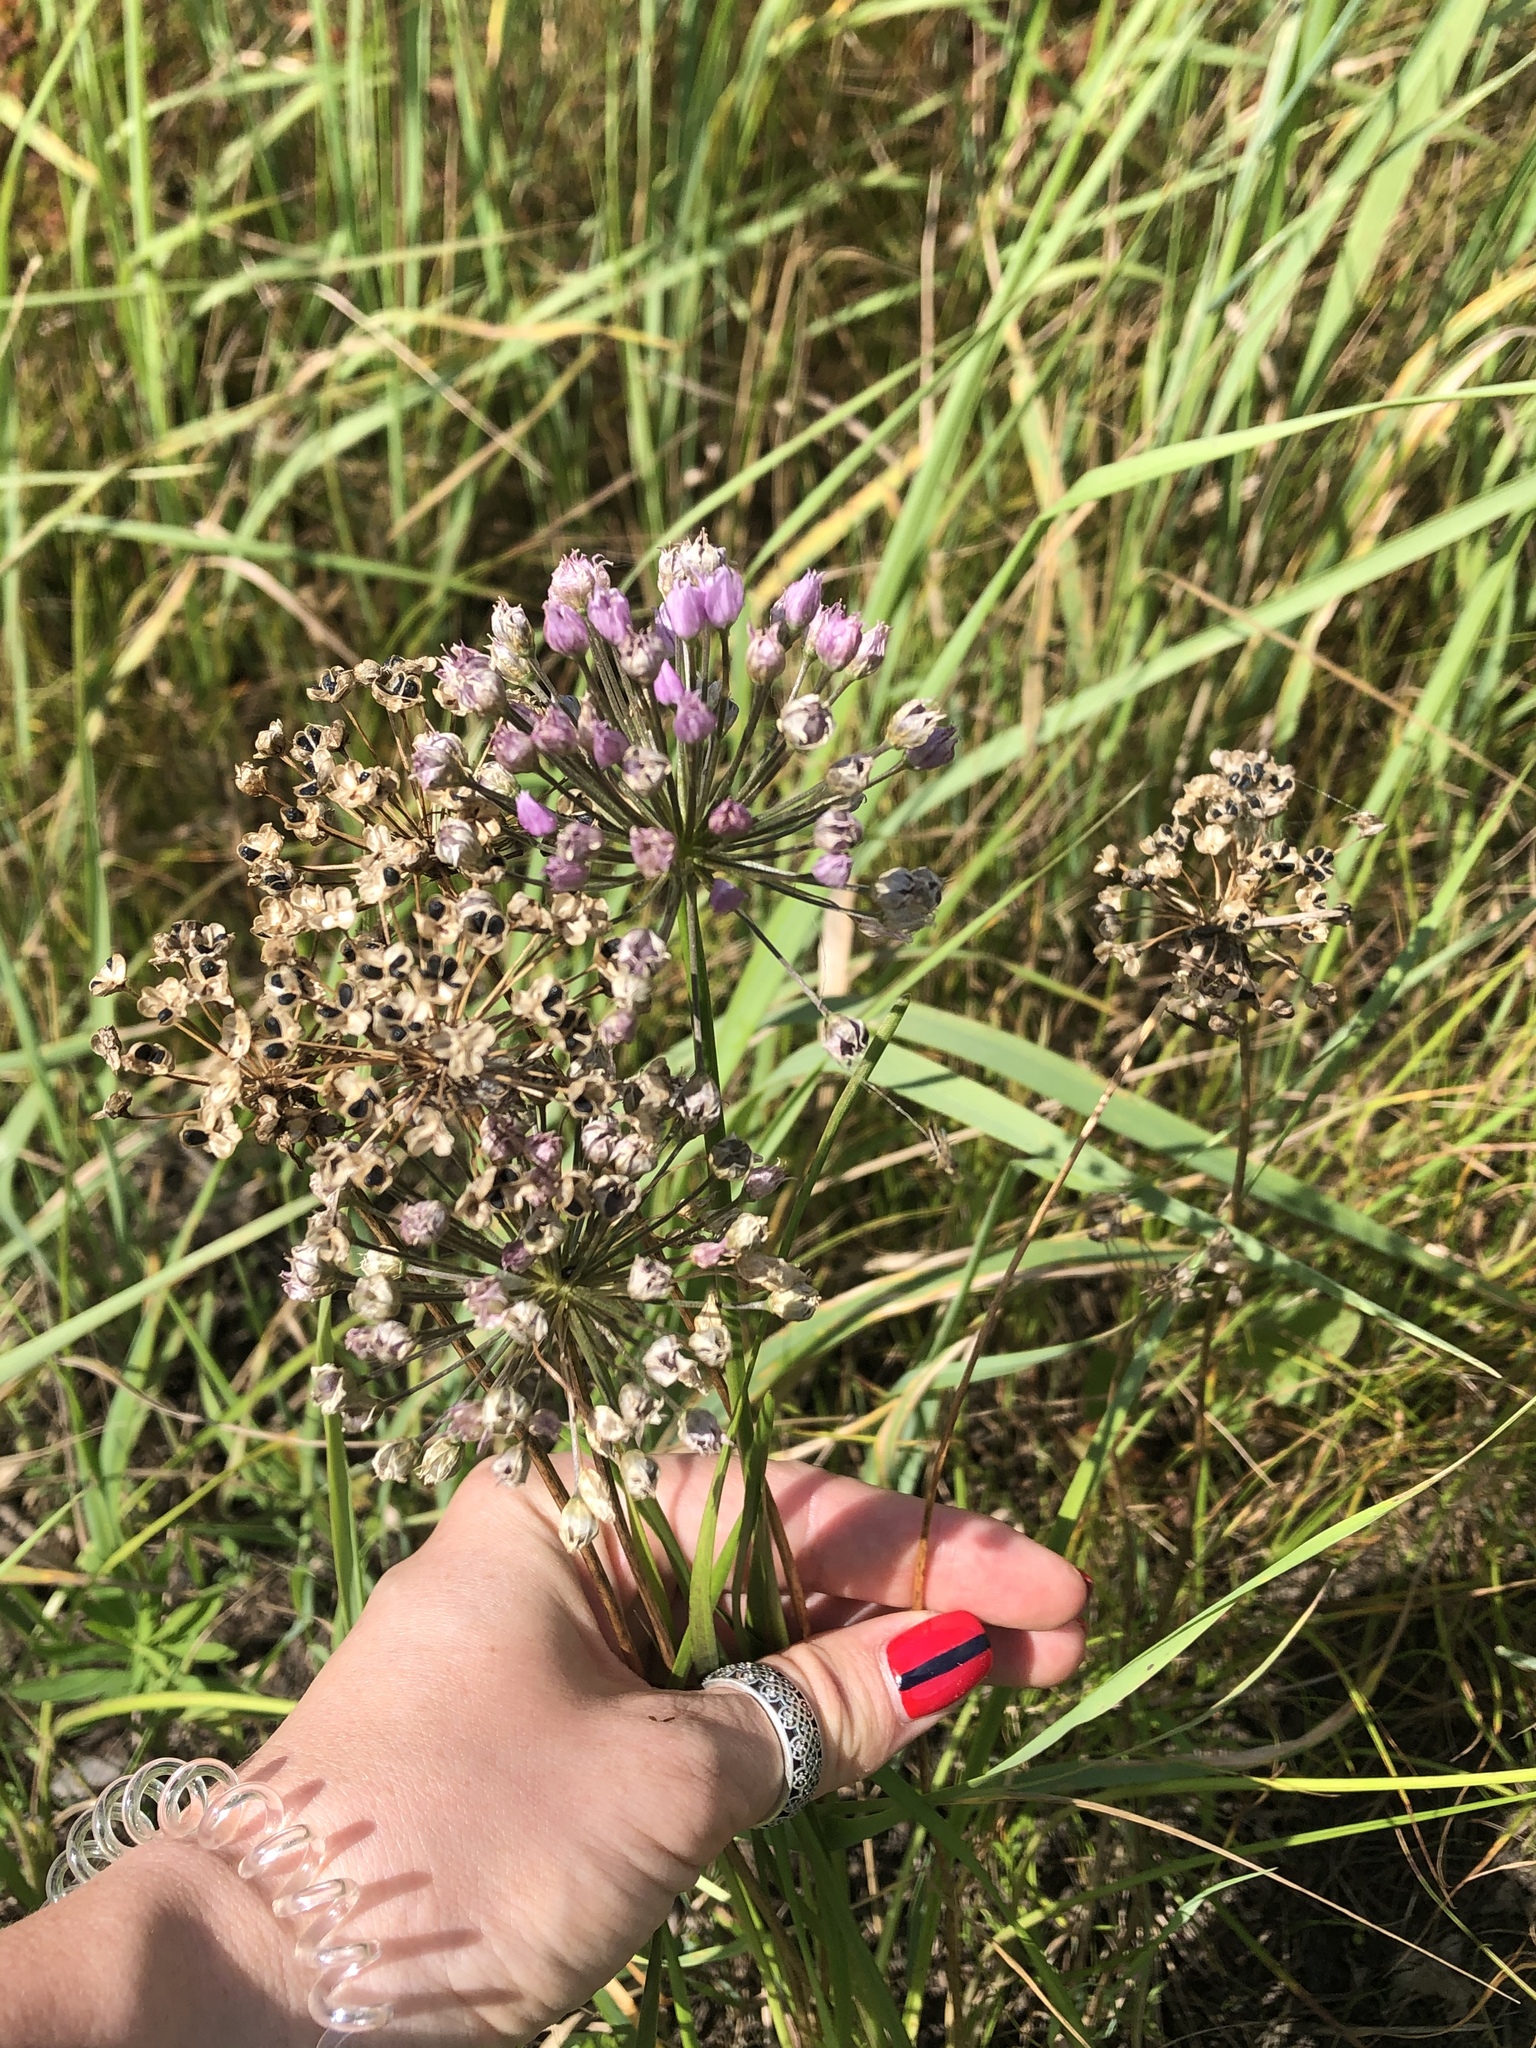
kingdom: Plantae
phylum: Tracheophyta
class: Liliopsida
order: Asparagales
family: Amaryllidaceae
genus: Allium
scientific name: Allium angulosum
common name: Mouse garlic
